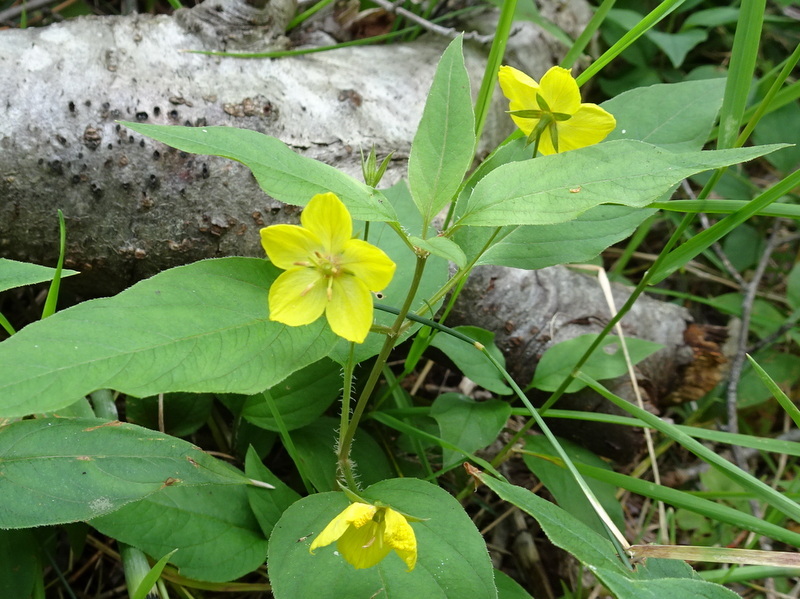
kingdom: Plantae
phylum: Tracheophyta
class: Magnoliopsida
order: Ericales
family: Primulaceae
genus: Lysimachia
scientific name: Lysimachia ciliata
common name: Fringed loosestrife
